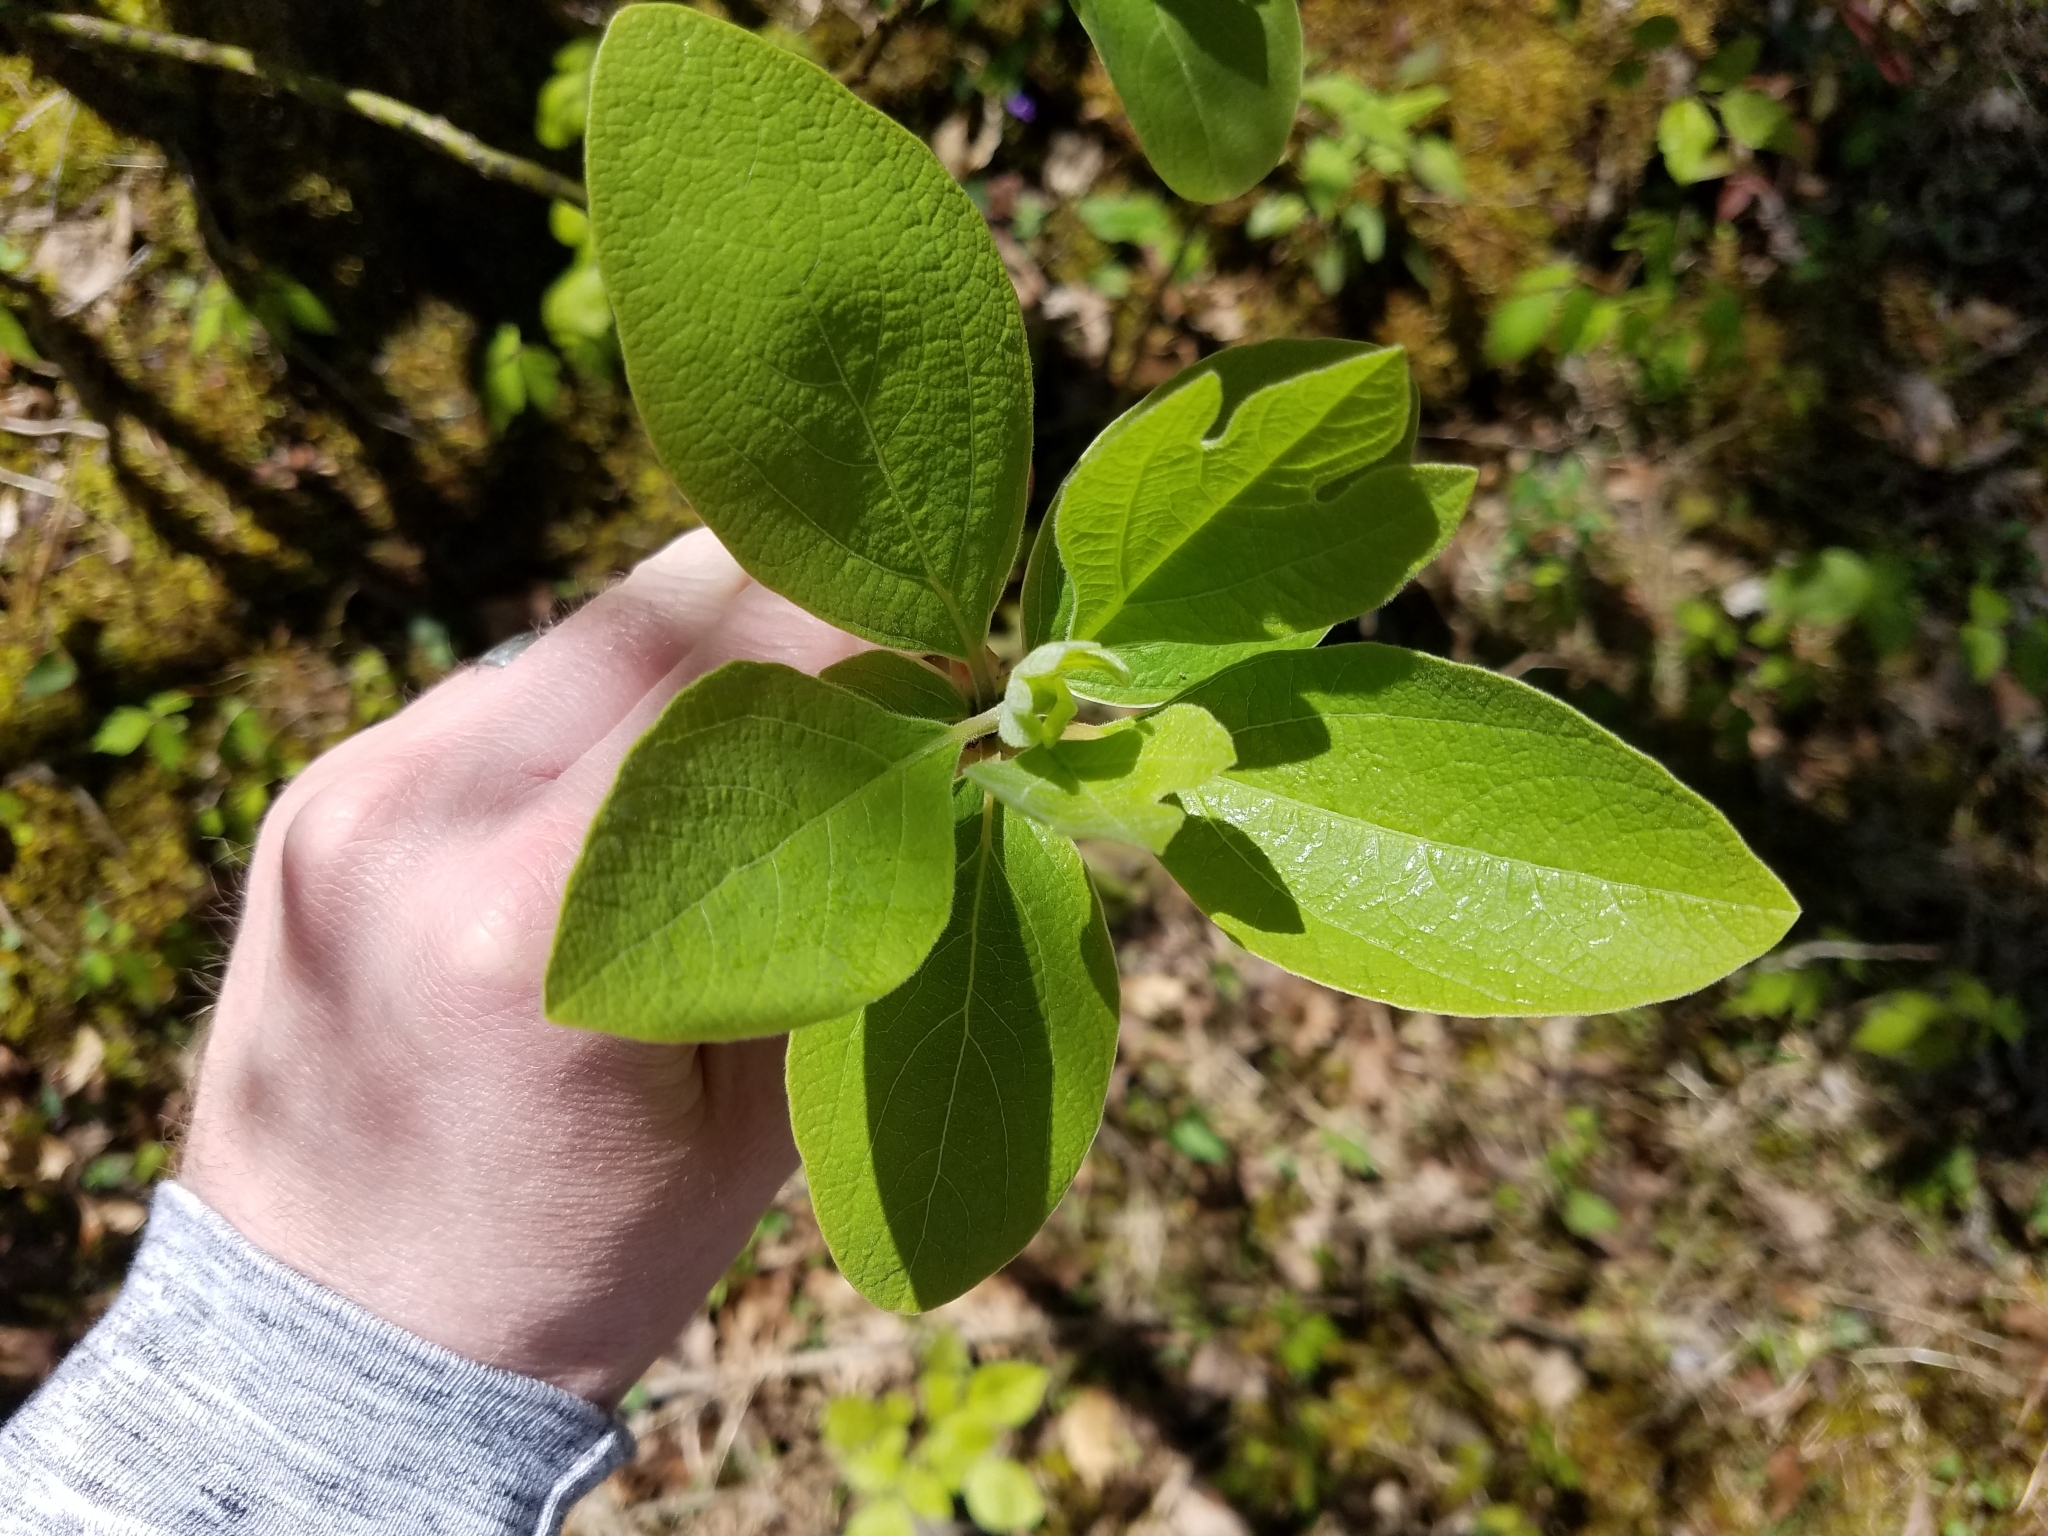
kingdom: Plantae
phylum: Tracheophyta
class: Magnoliopsida
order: Laurales
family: Lauraceae
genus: Sassafras
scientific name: Sassafras albidum
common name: Sassafras
